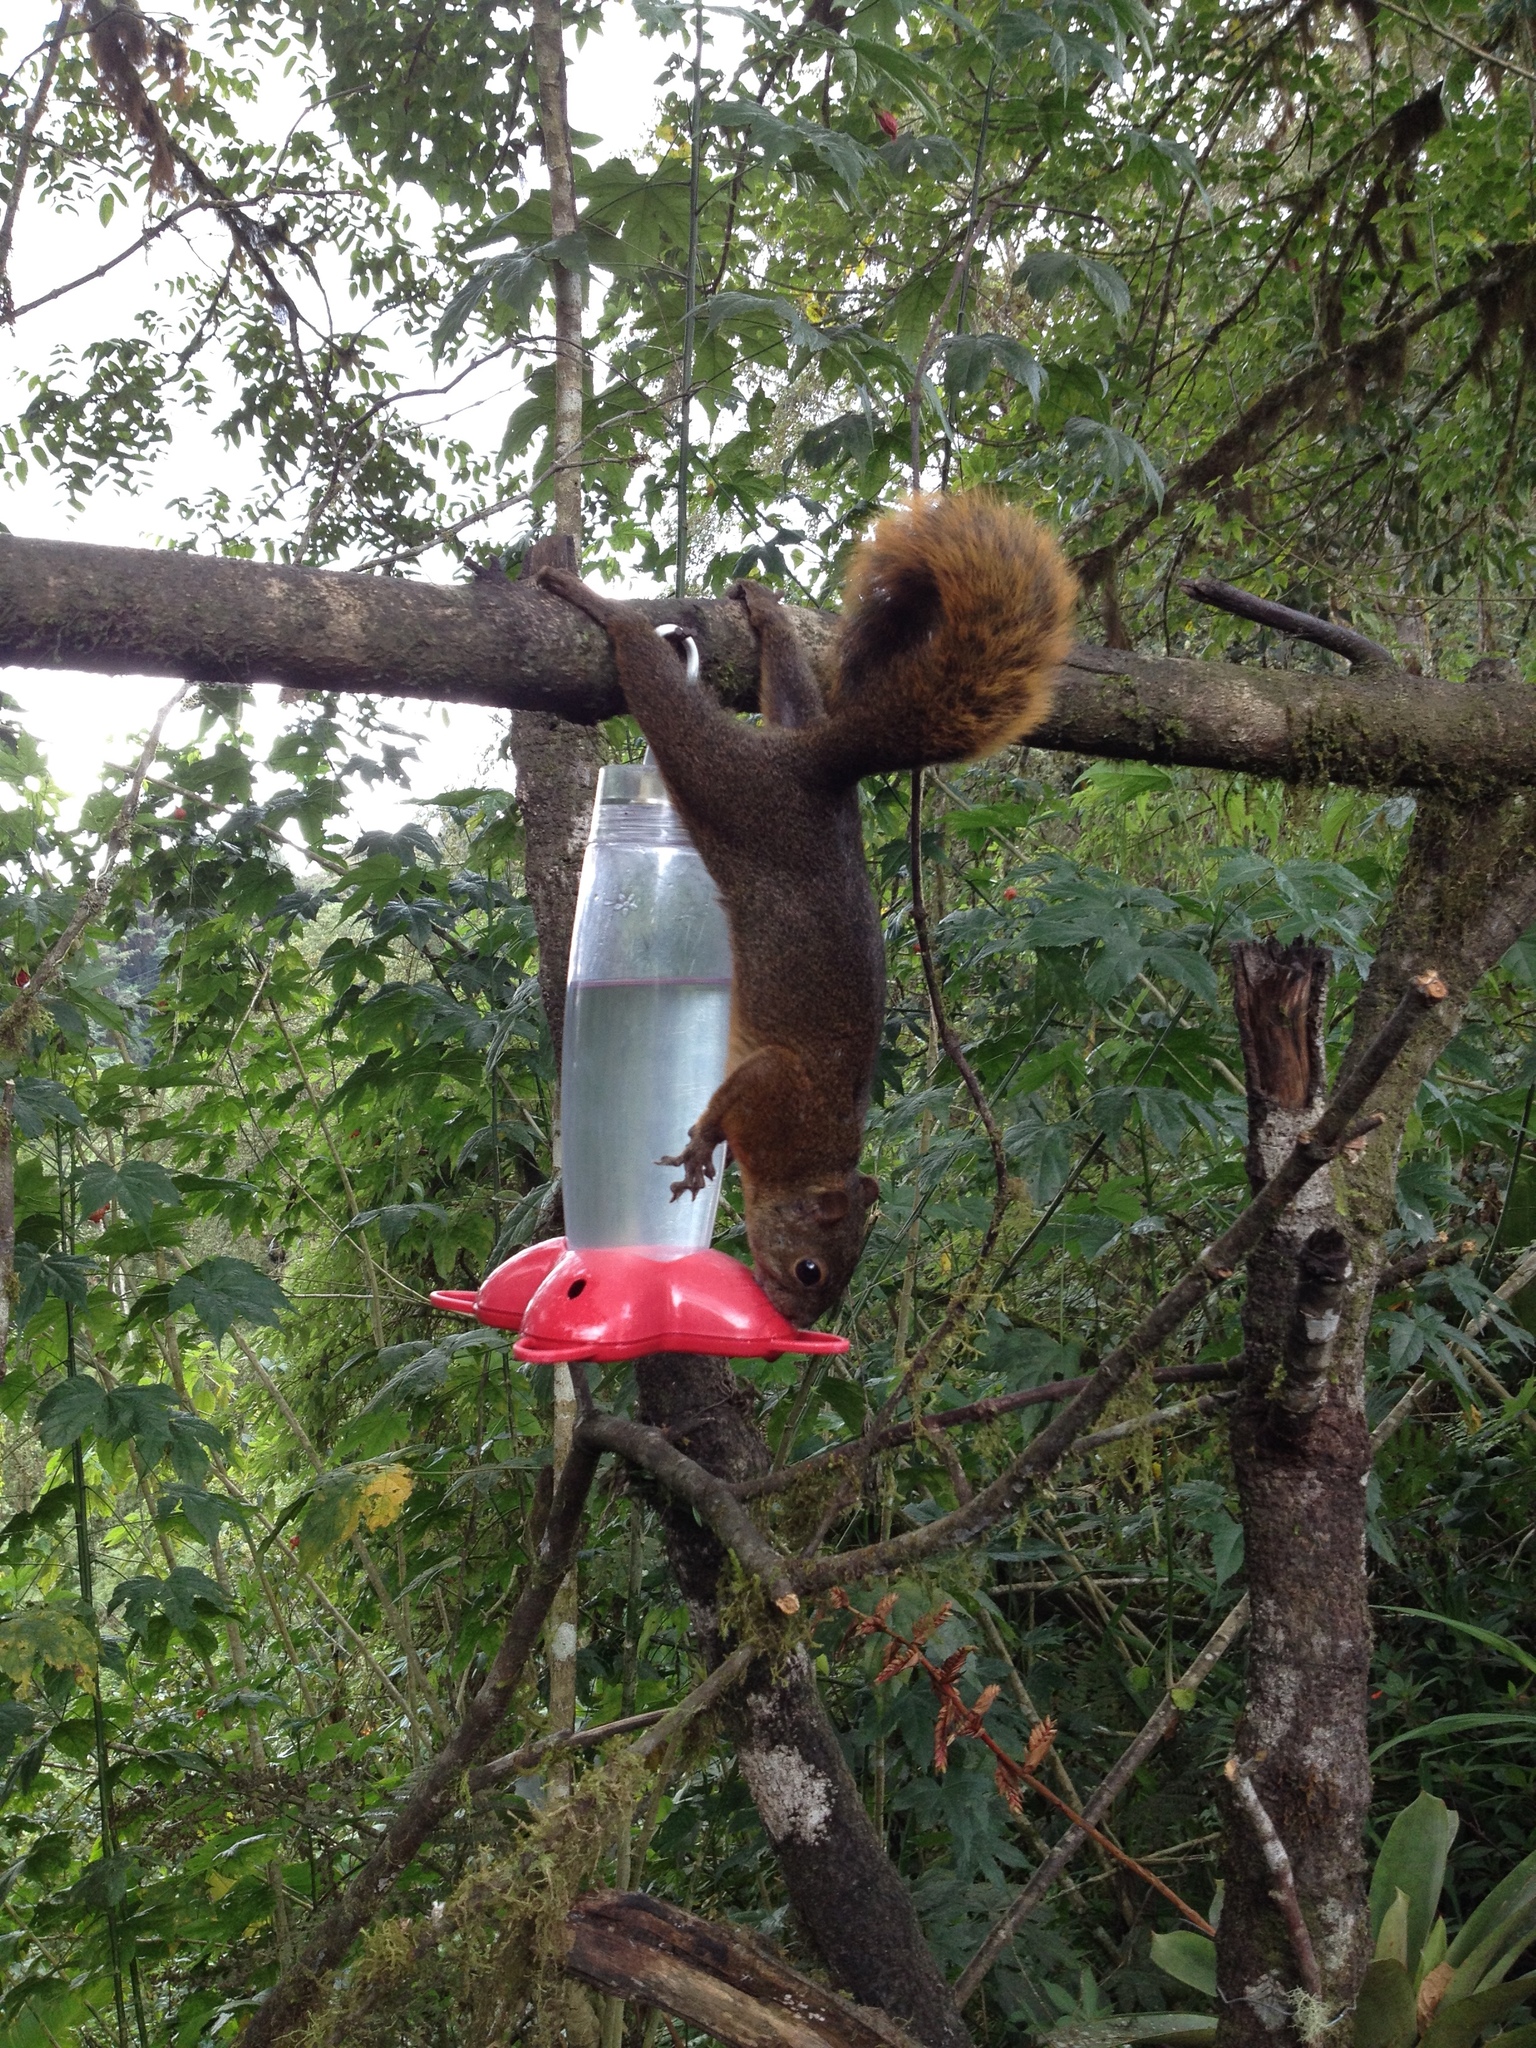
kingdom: Animalia
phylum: Chordata
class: Mammalia
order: Rodentia
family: Sciuridae
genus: Sciurus
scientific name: Sciurus granatensis
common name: Red-tailed squirrel
